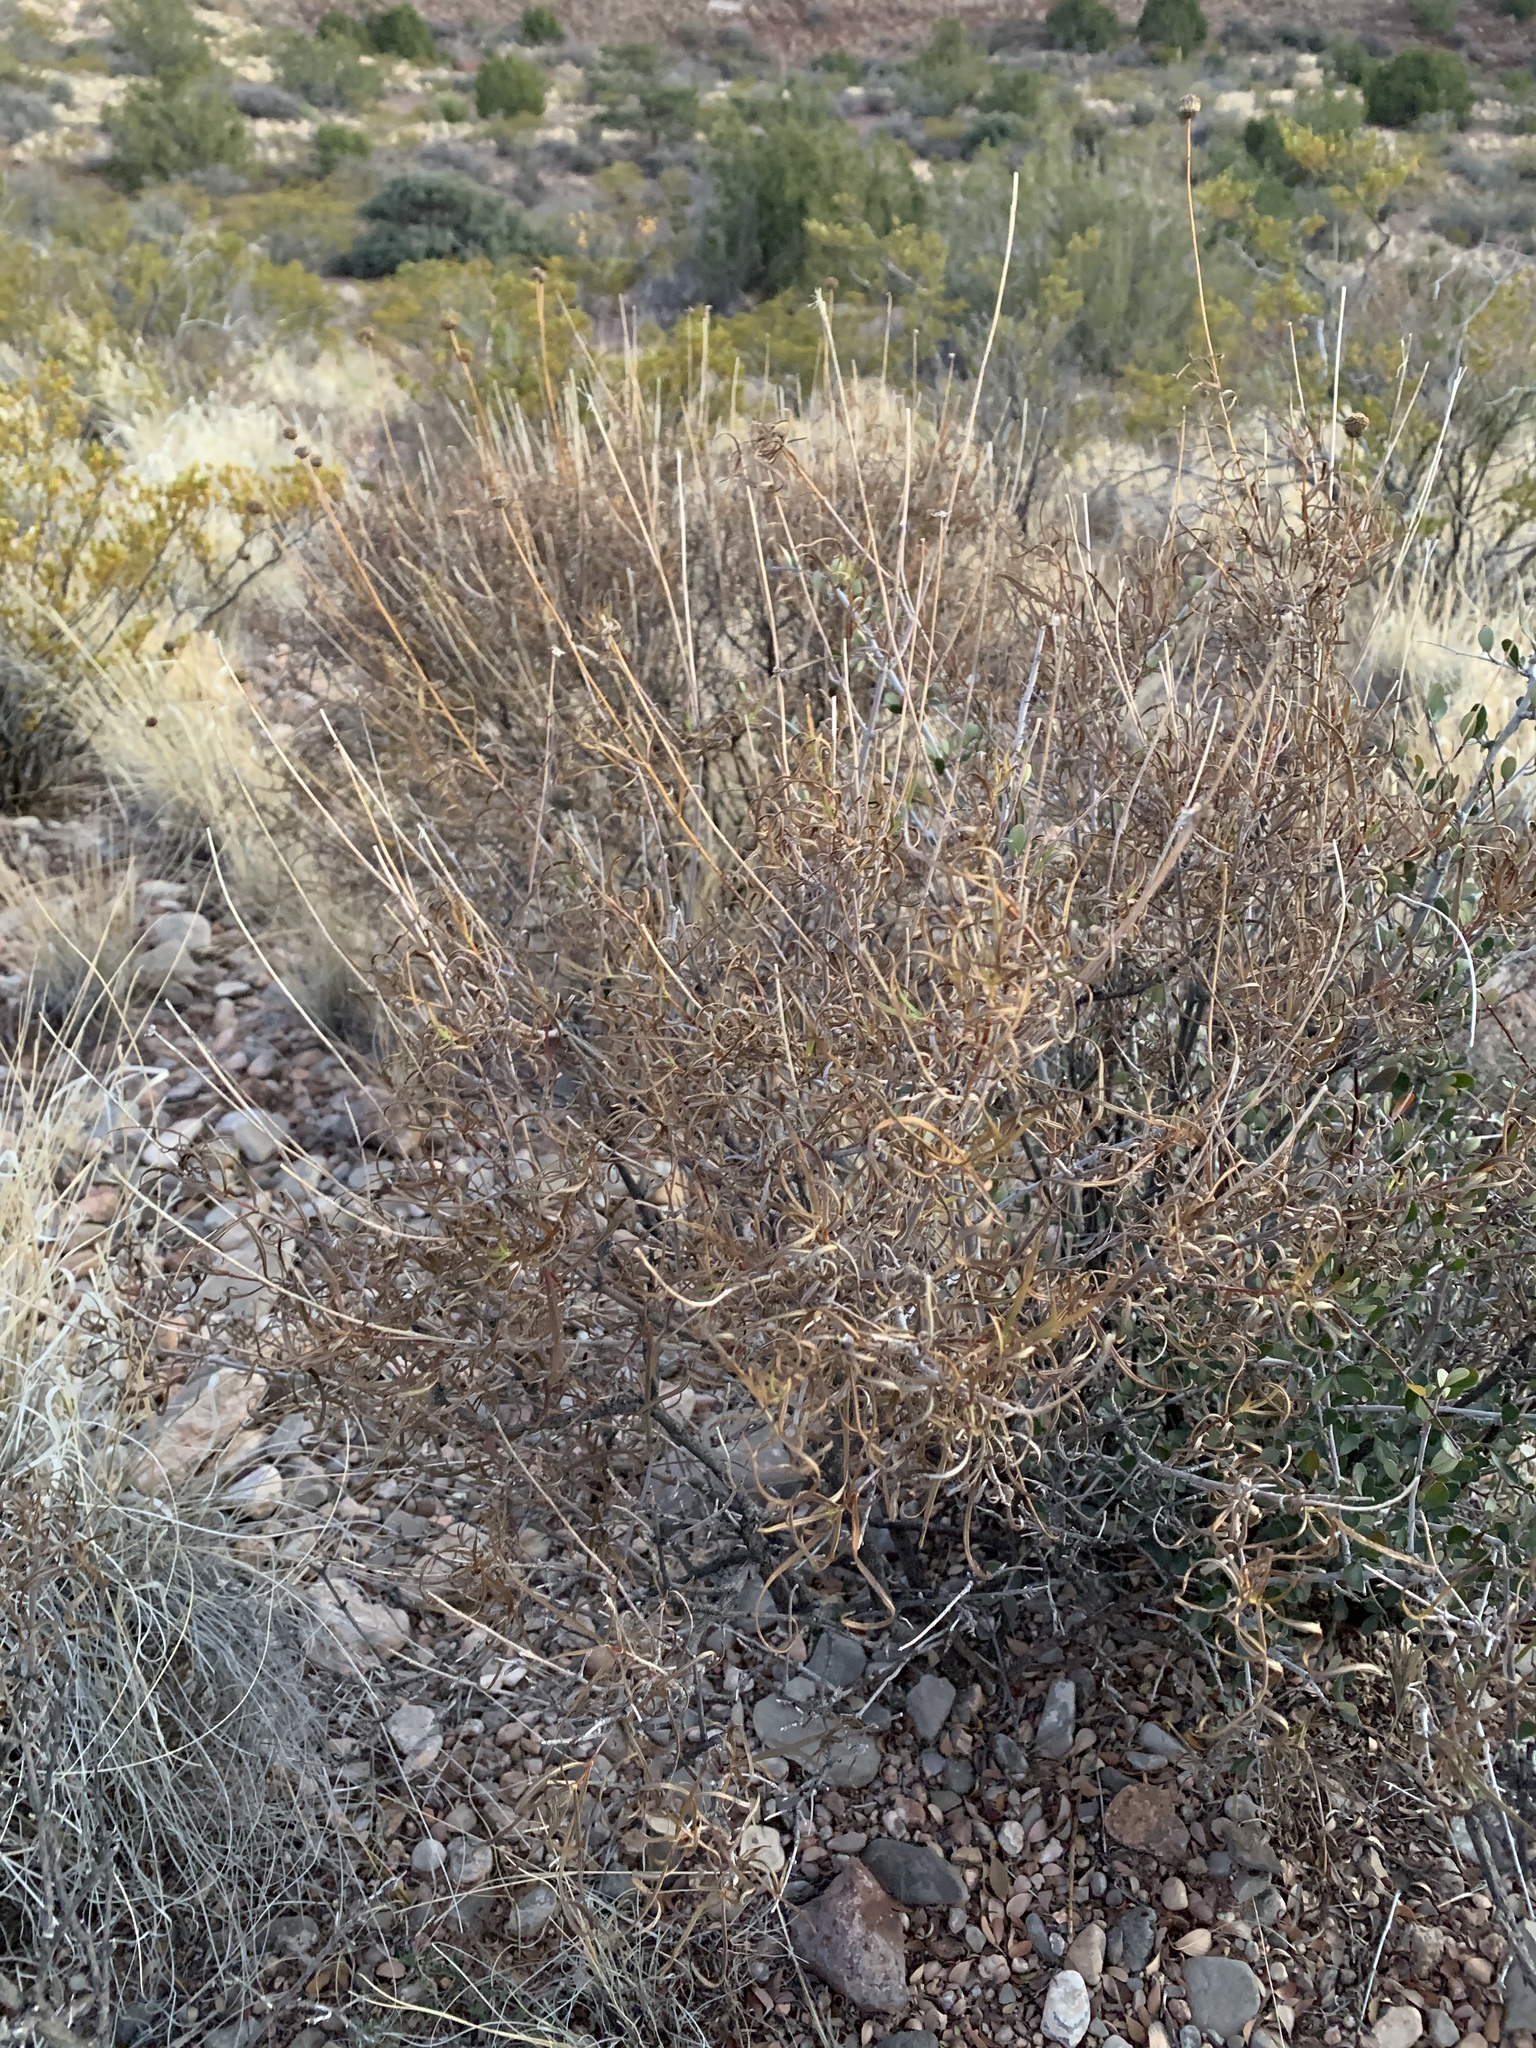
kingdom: Plantae
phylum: Tracheophyta
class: Magnoliopsida
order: Asterales
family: Asteraceae
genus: Sidneya
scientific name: Sidneya tenuifolia
